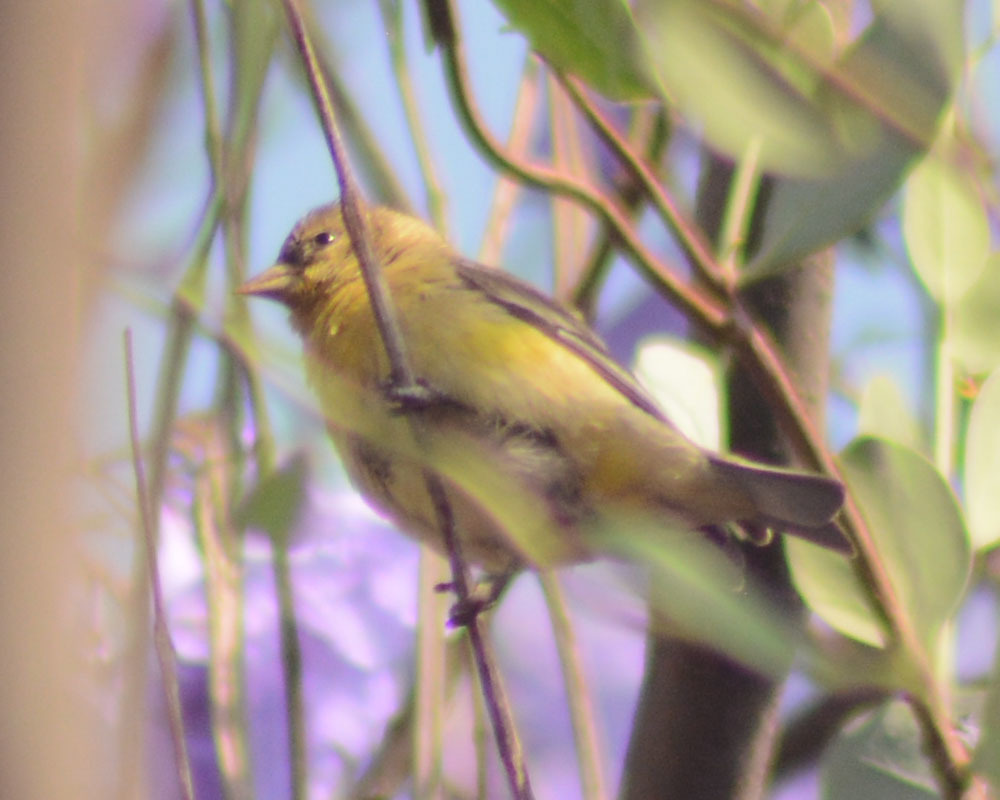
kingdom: Animalia
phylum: Chordata
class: Aves
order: Passeriformes
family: Fringillidae
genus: Spinus
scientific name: Spinus psaltria
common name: Lesser goldfinch
